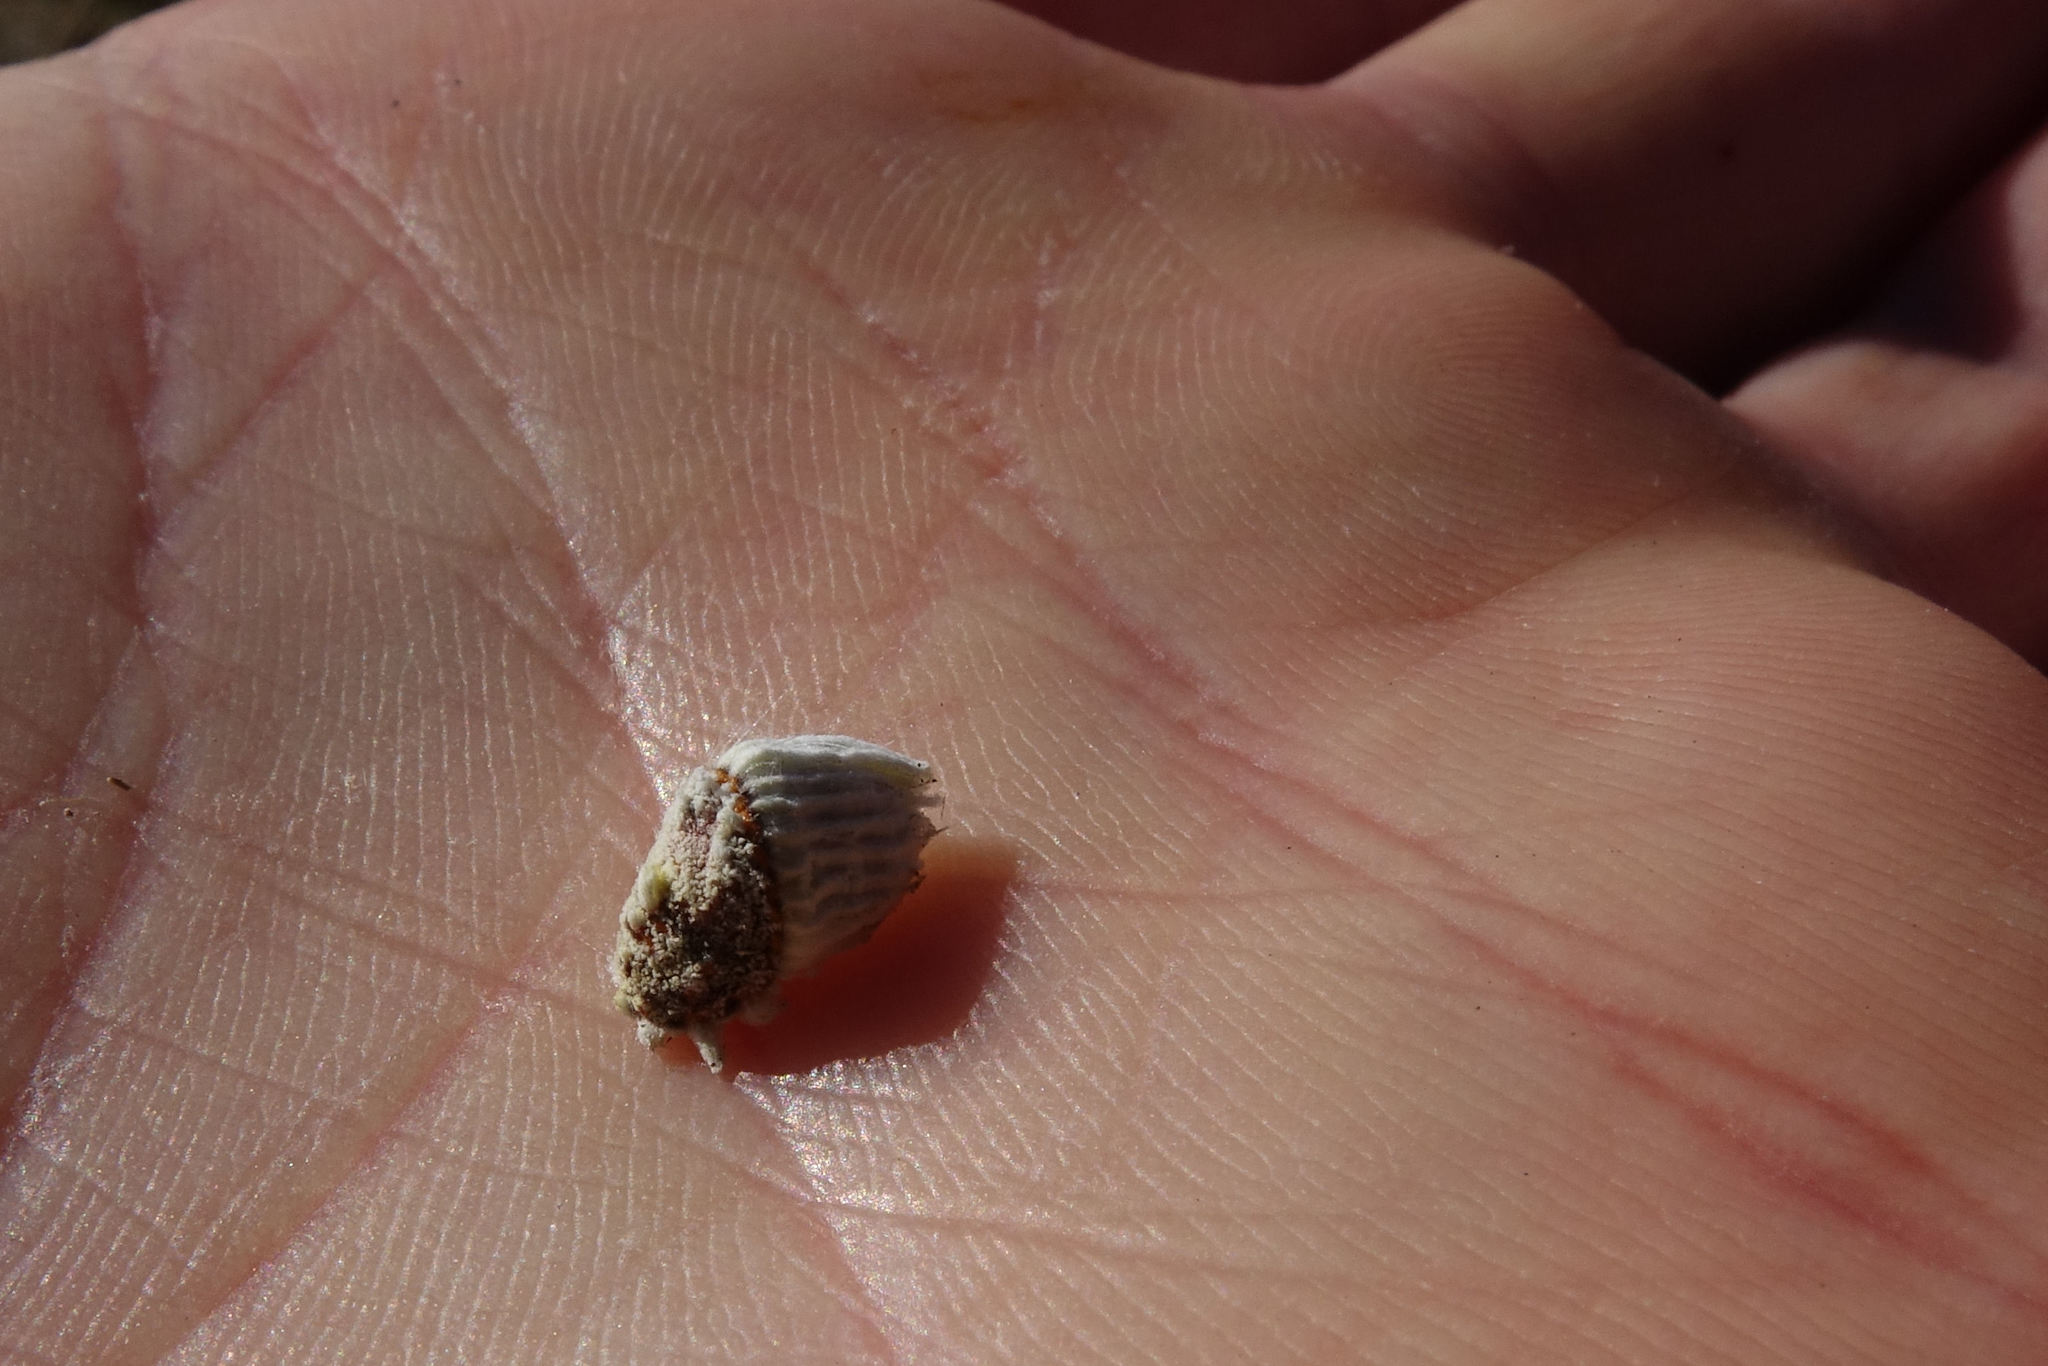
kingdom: Animalia
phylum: Arthropoda
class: Insecta
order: Hemiptera
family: Margarodidae
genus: Icerya
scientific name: Icerya purchasi
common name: Cottony cushion scale
